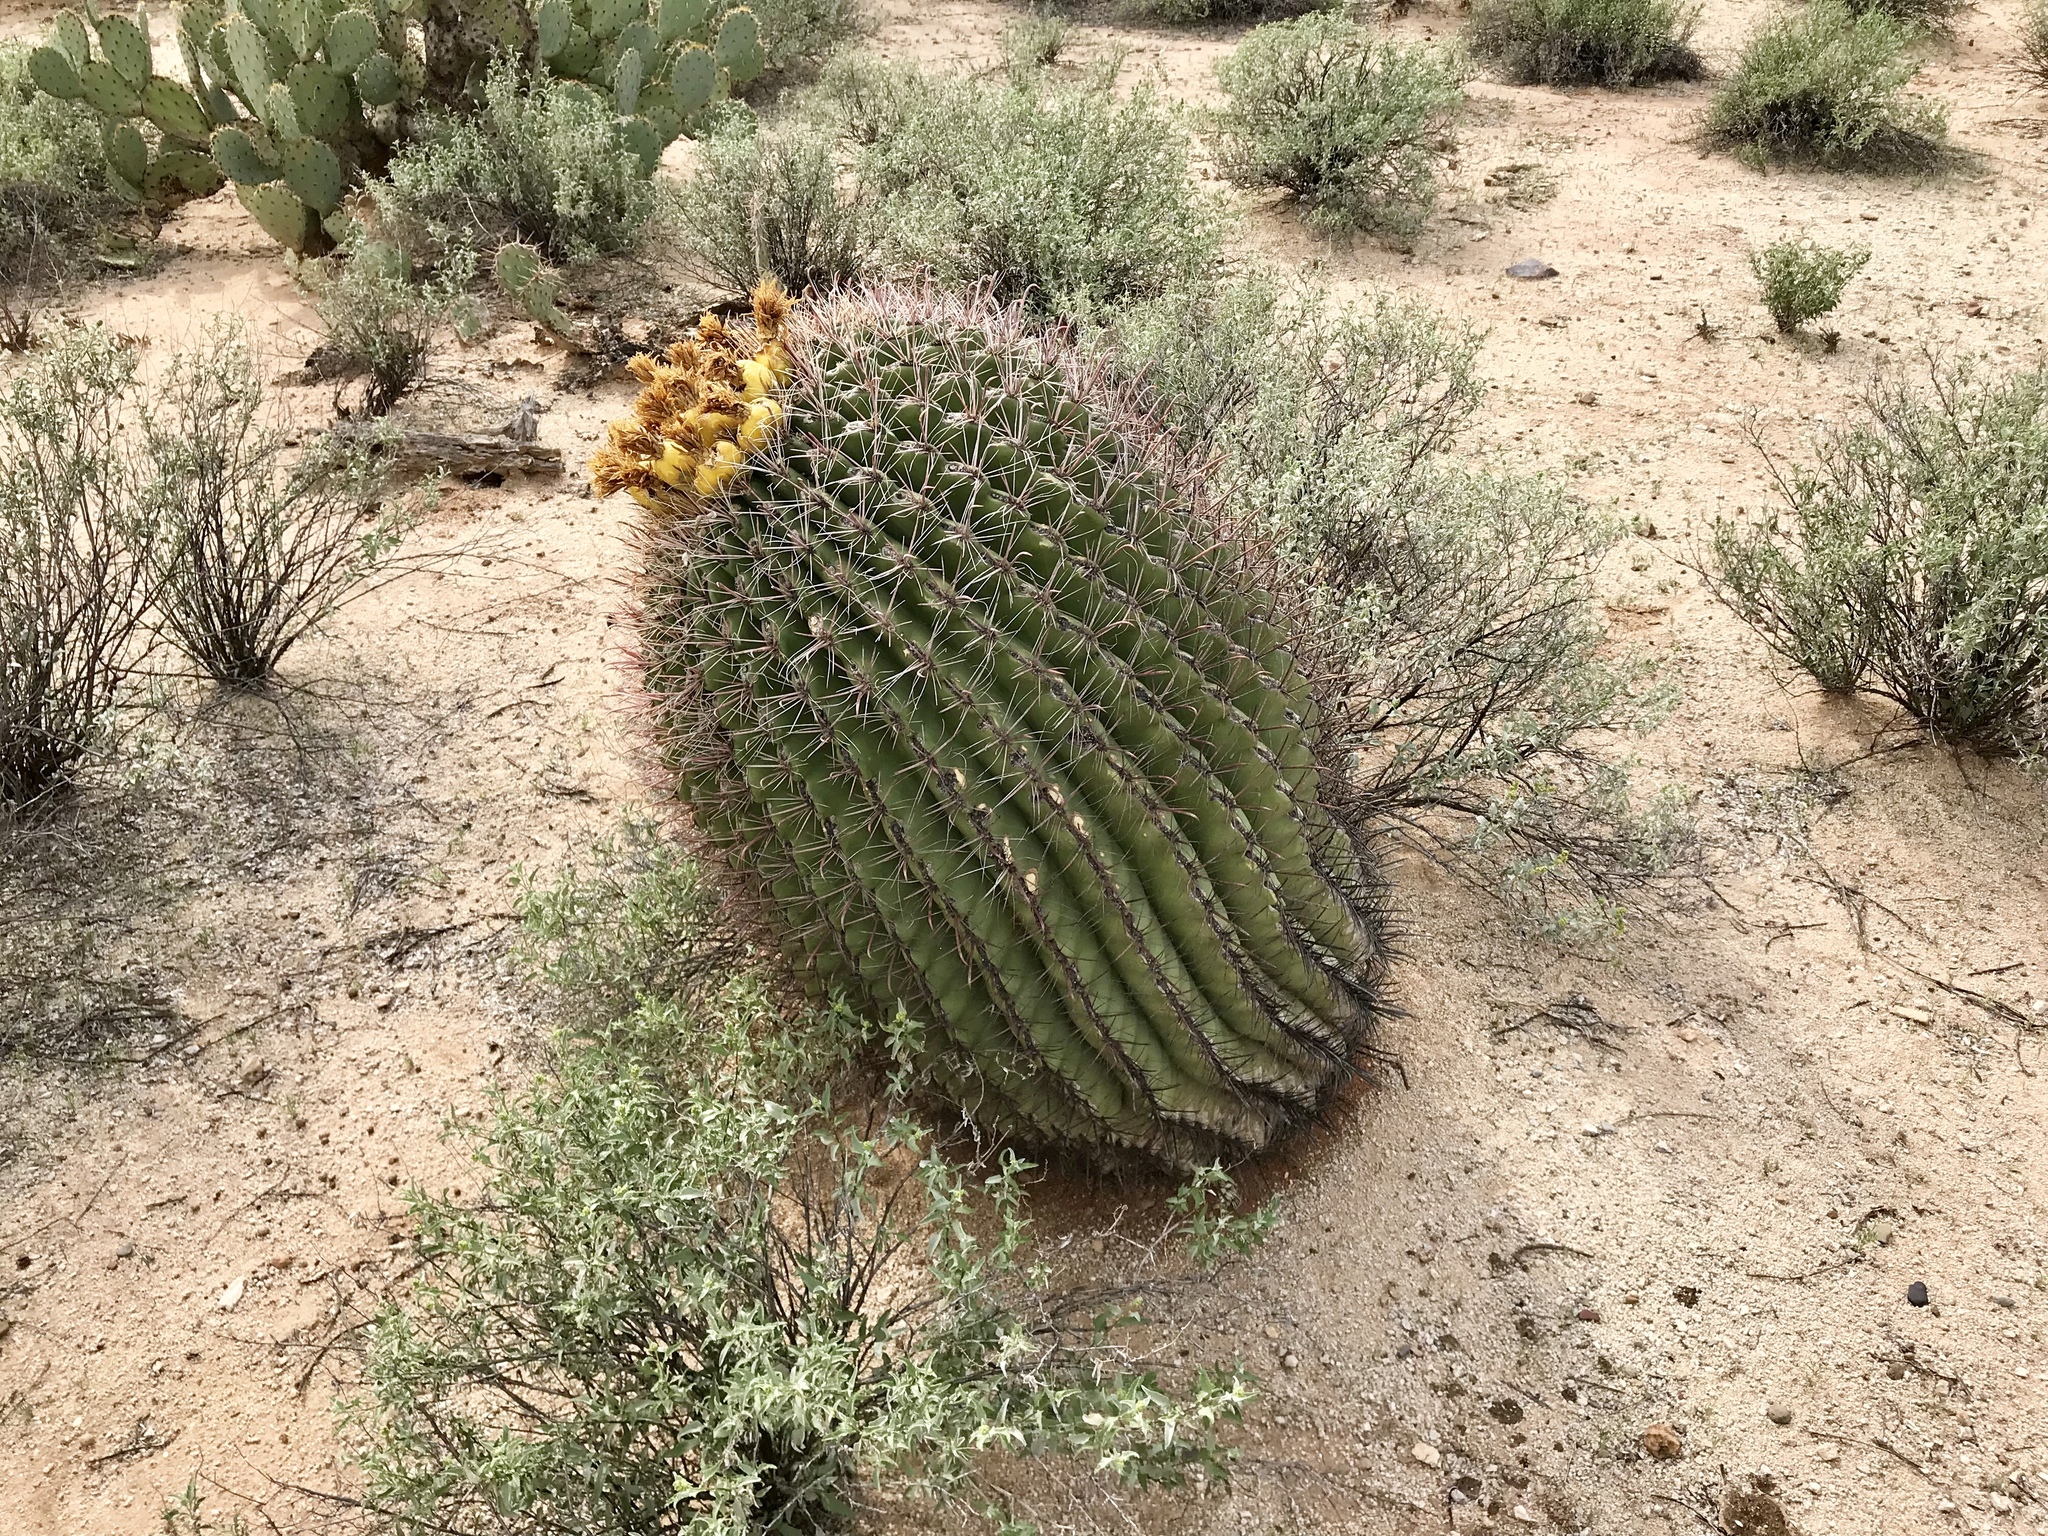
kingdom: Plantae
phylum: Tracheophyta
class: Magnoliopsida
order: Caryophyllales
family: Cactaceae
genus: Ferocactus
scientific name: Ferocactus wislizeni
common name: Candy barrel cactus
